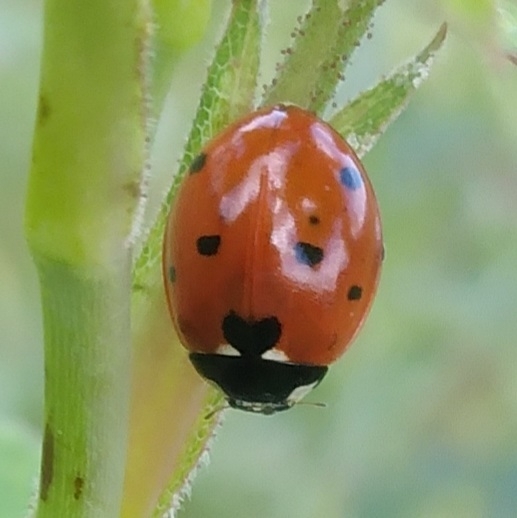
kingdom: Animalia
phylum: Arthropoda
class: Insecta
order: Coleoptera
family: Coccinellidae
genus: Coccinella
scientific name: Coccinella septempunctata
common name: Sevenspotted lady beetle
